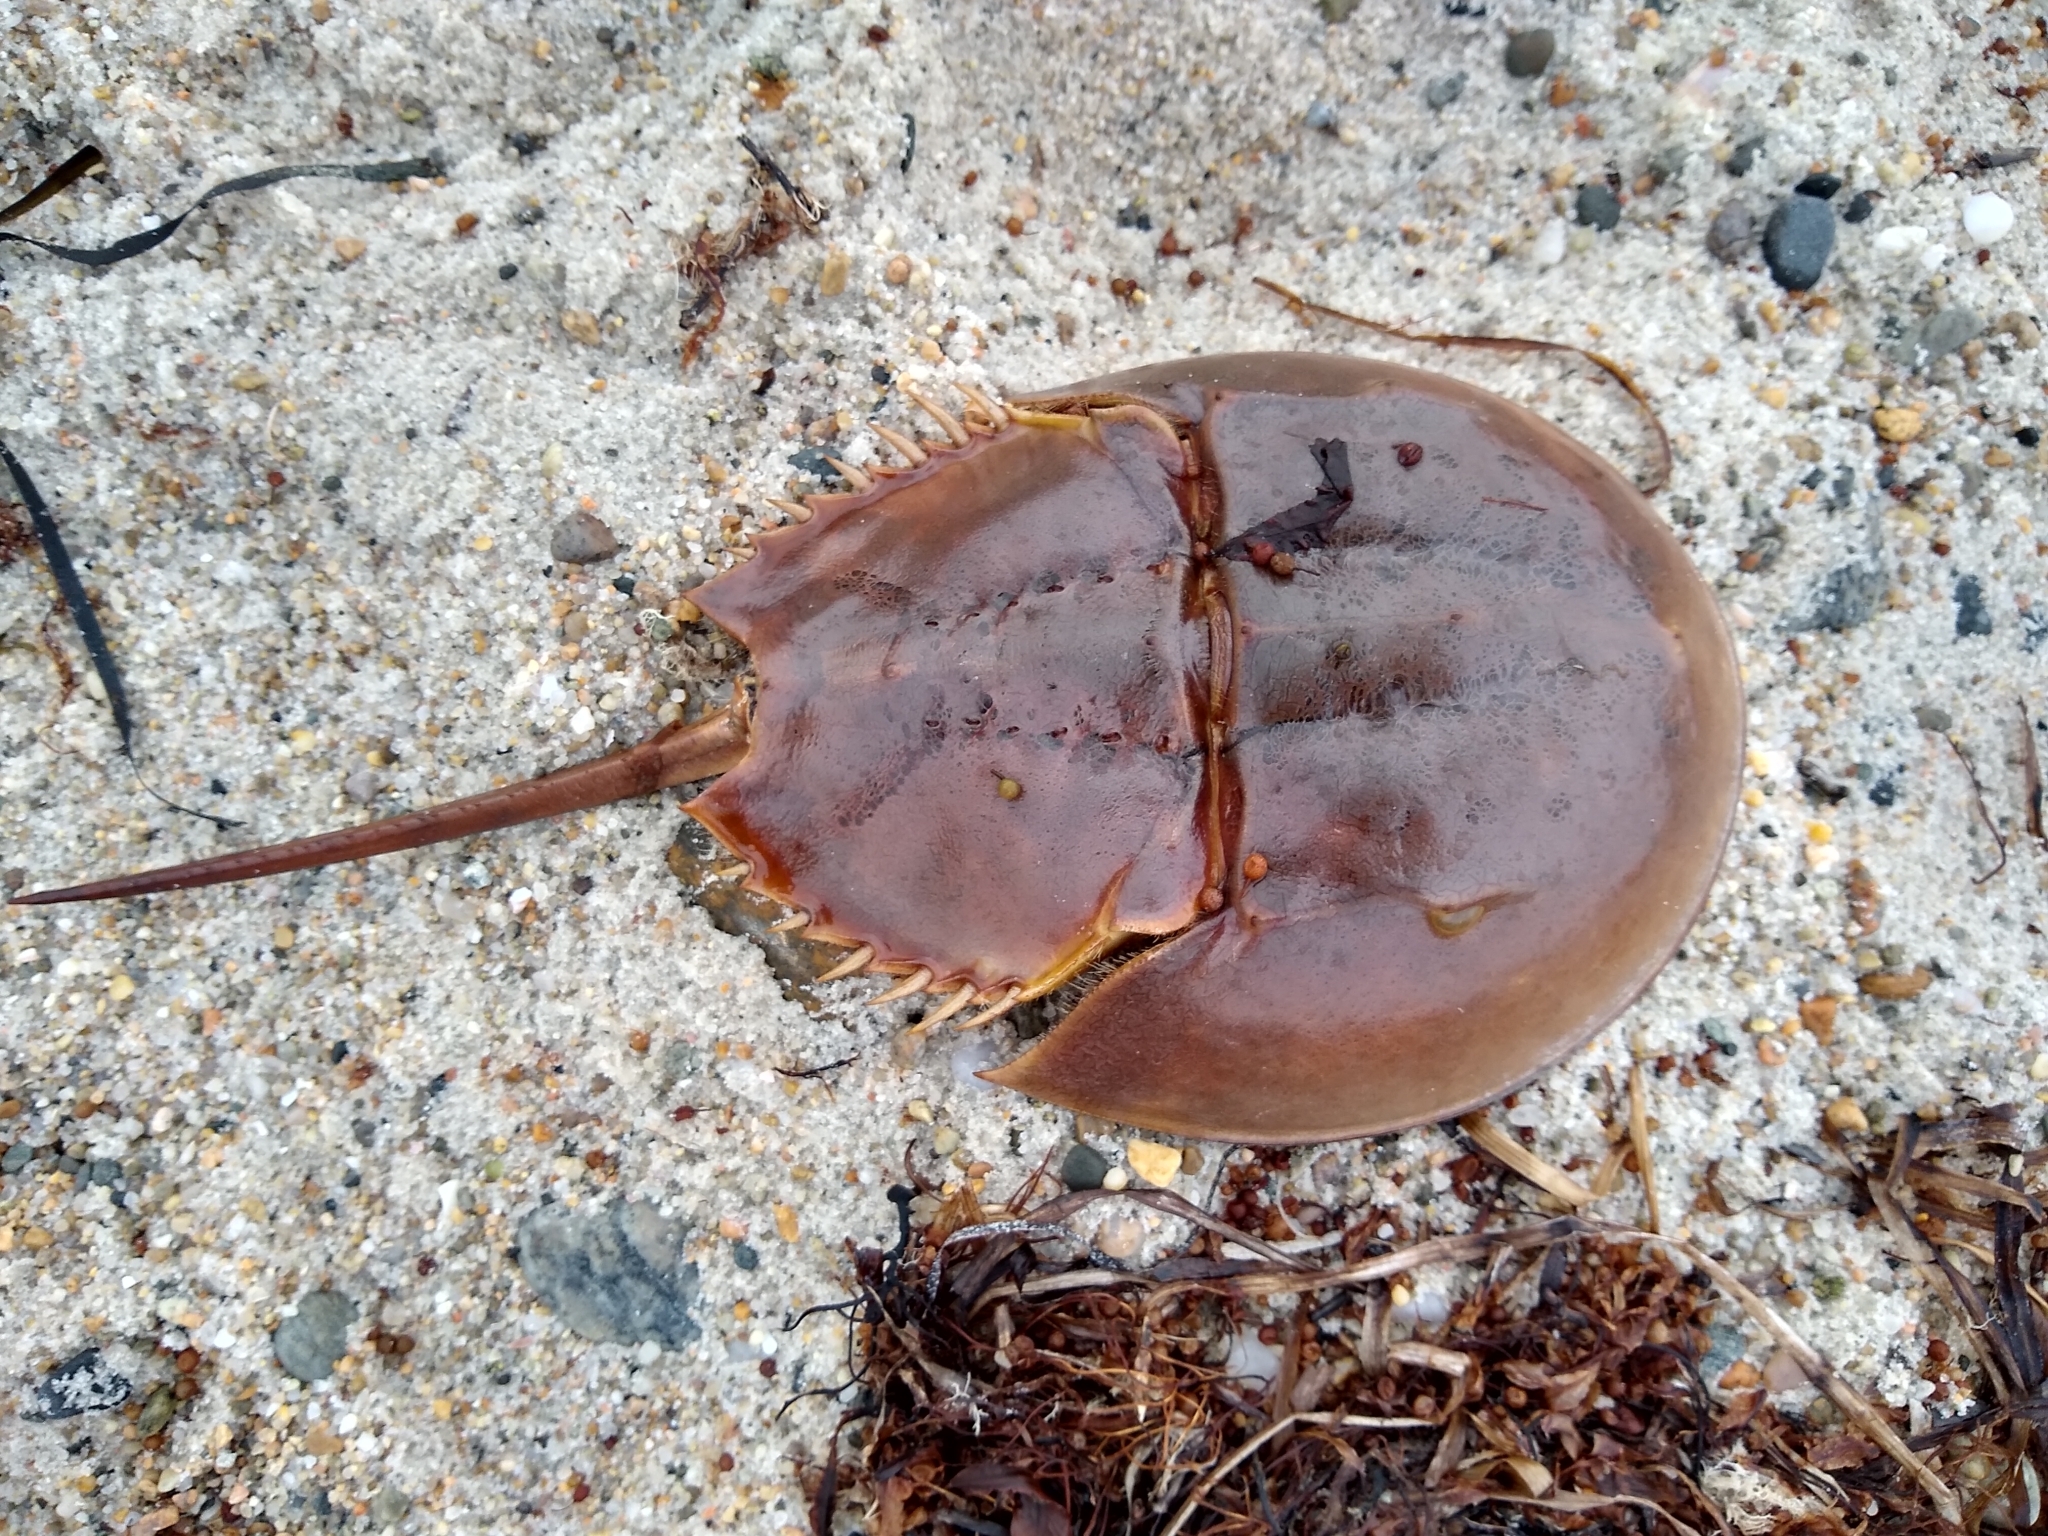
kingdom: Animalia
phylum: Arthropoda
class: Merostomata
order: Xiphosurida
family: Limulidae
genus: Limulus
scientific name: Limulus polyphemus
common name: Horseshoe crab
